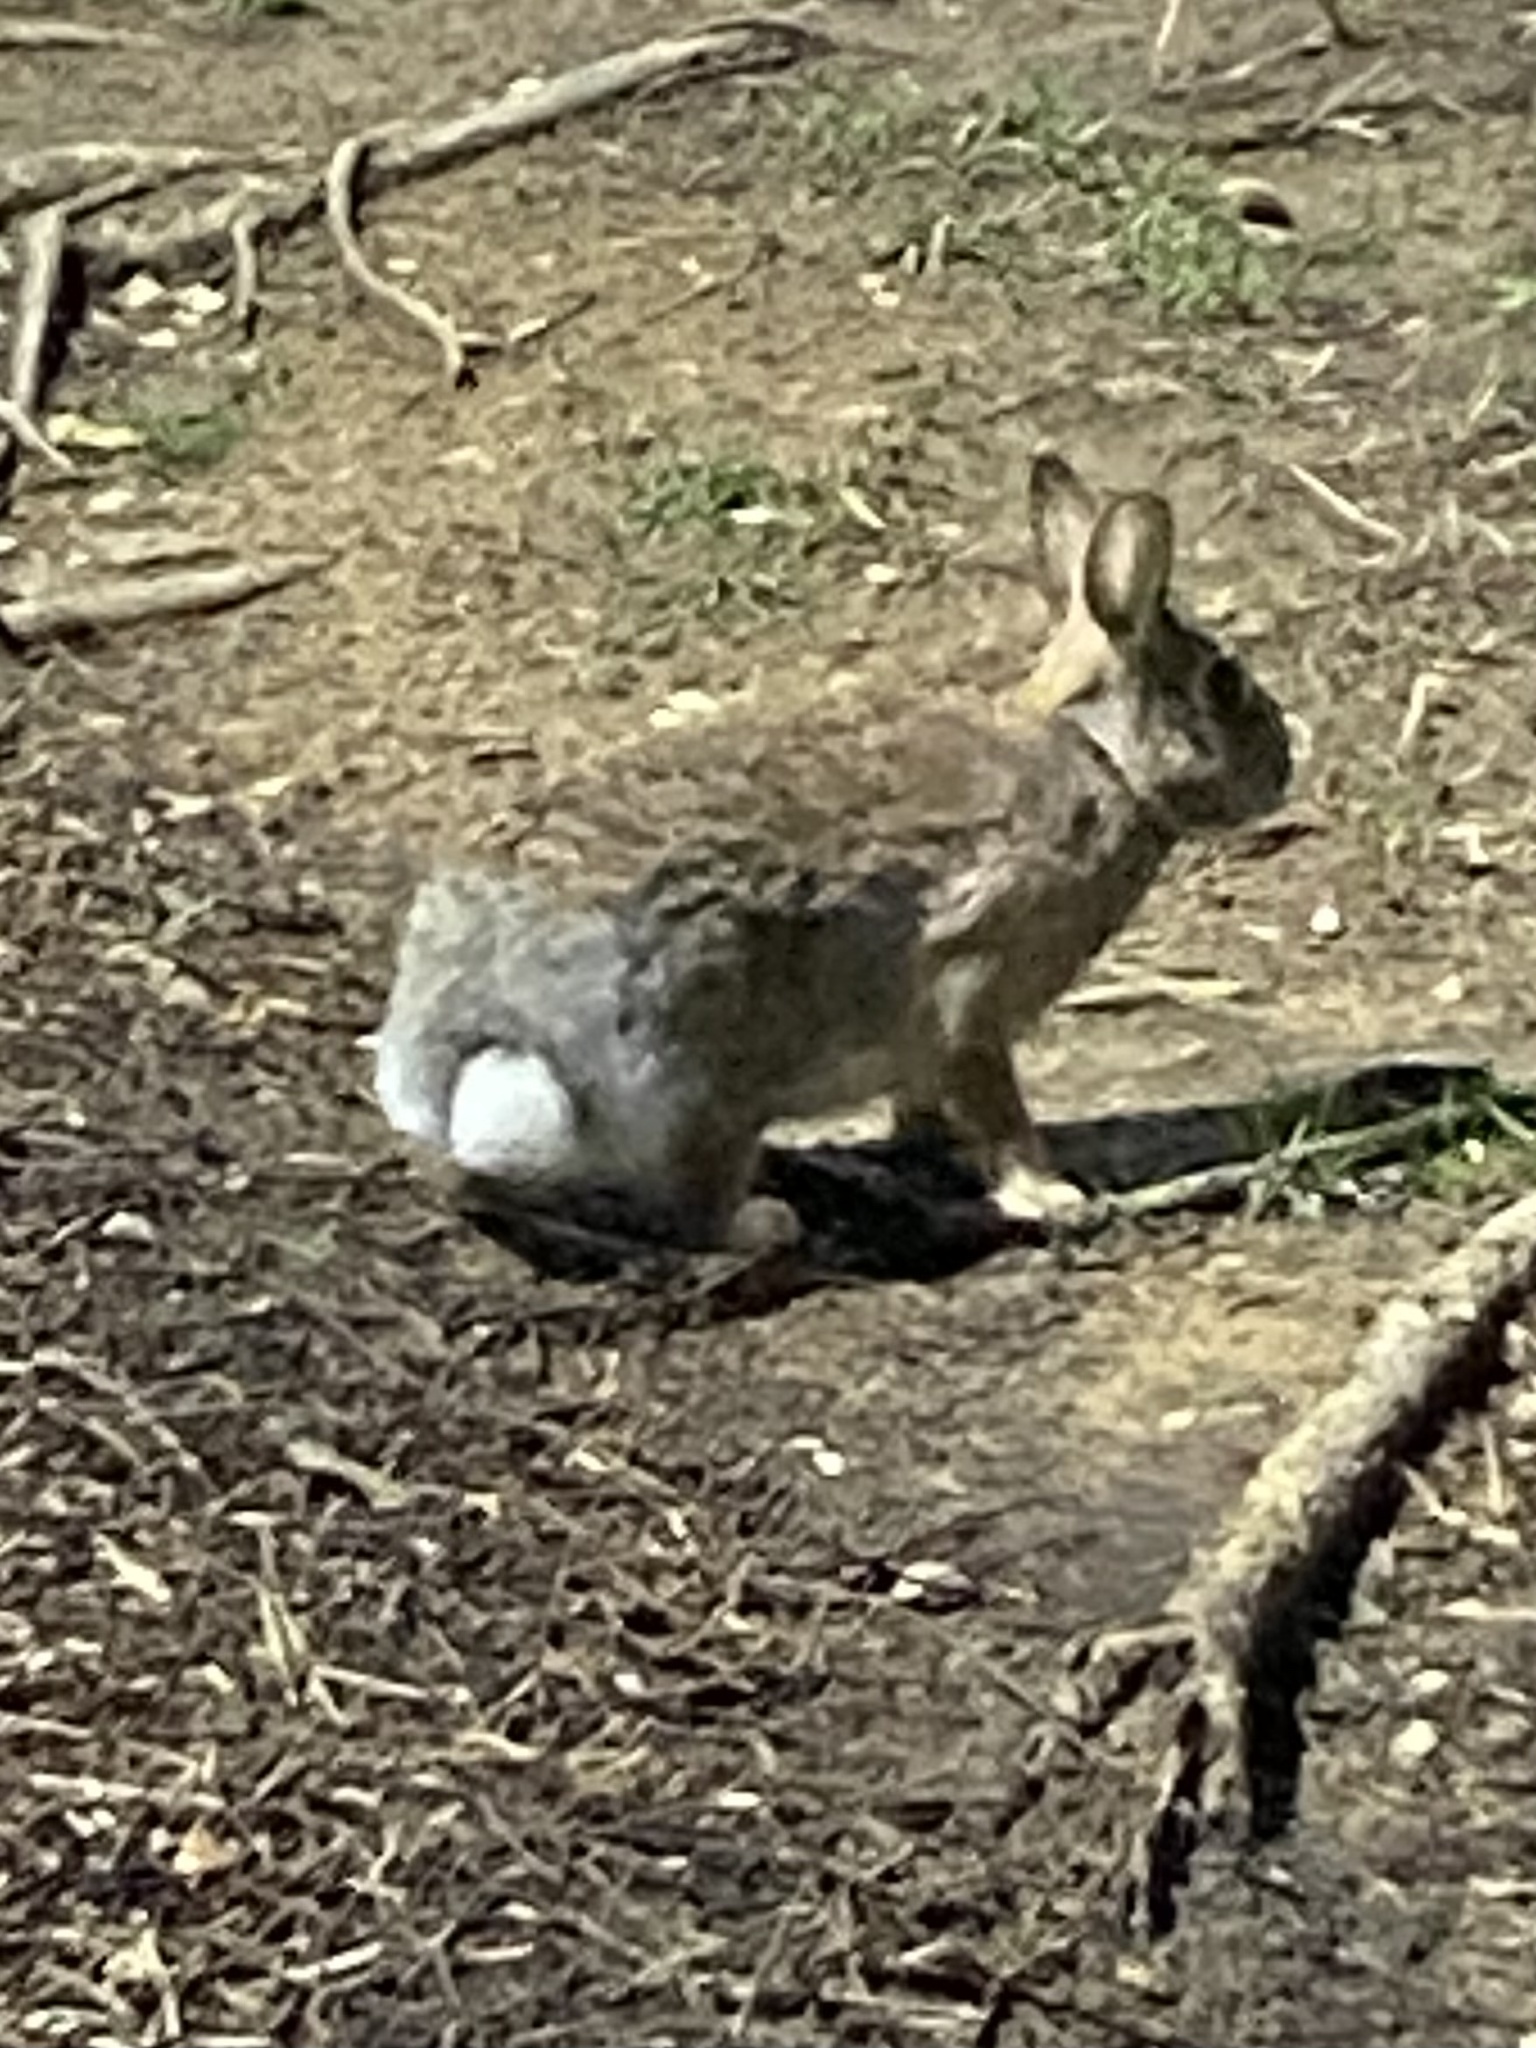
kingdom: Animalia
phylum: Chordata
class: Mammalia
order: Lagomorpha
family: Leporidae
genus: Sylvilagus
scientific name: Sylvilagus floridanus
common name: Eastern cottontail
